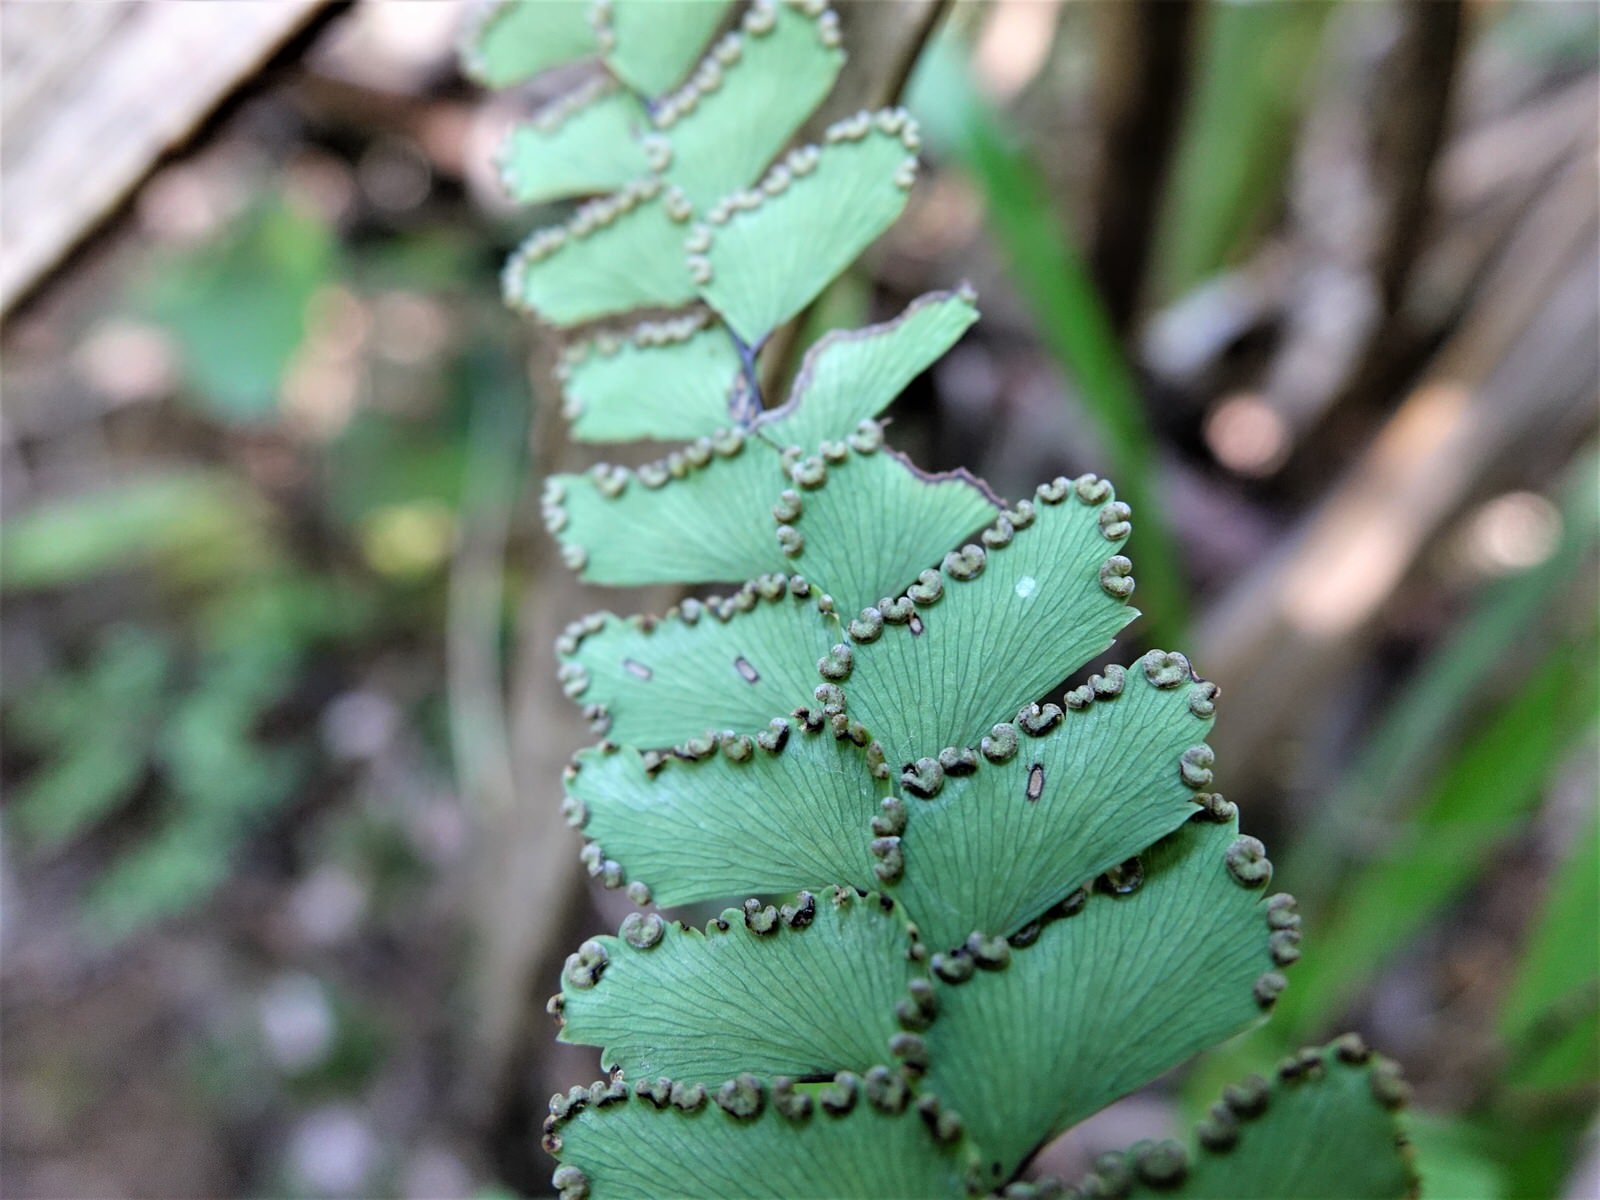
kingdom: Plantae
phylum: Tracheophyta
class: Polypodiopsida
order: Polypodiales
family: Pteridaceae
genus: Adiantum
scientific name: Adiantum cunninghamii
